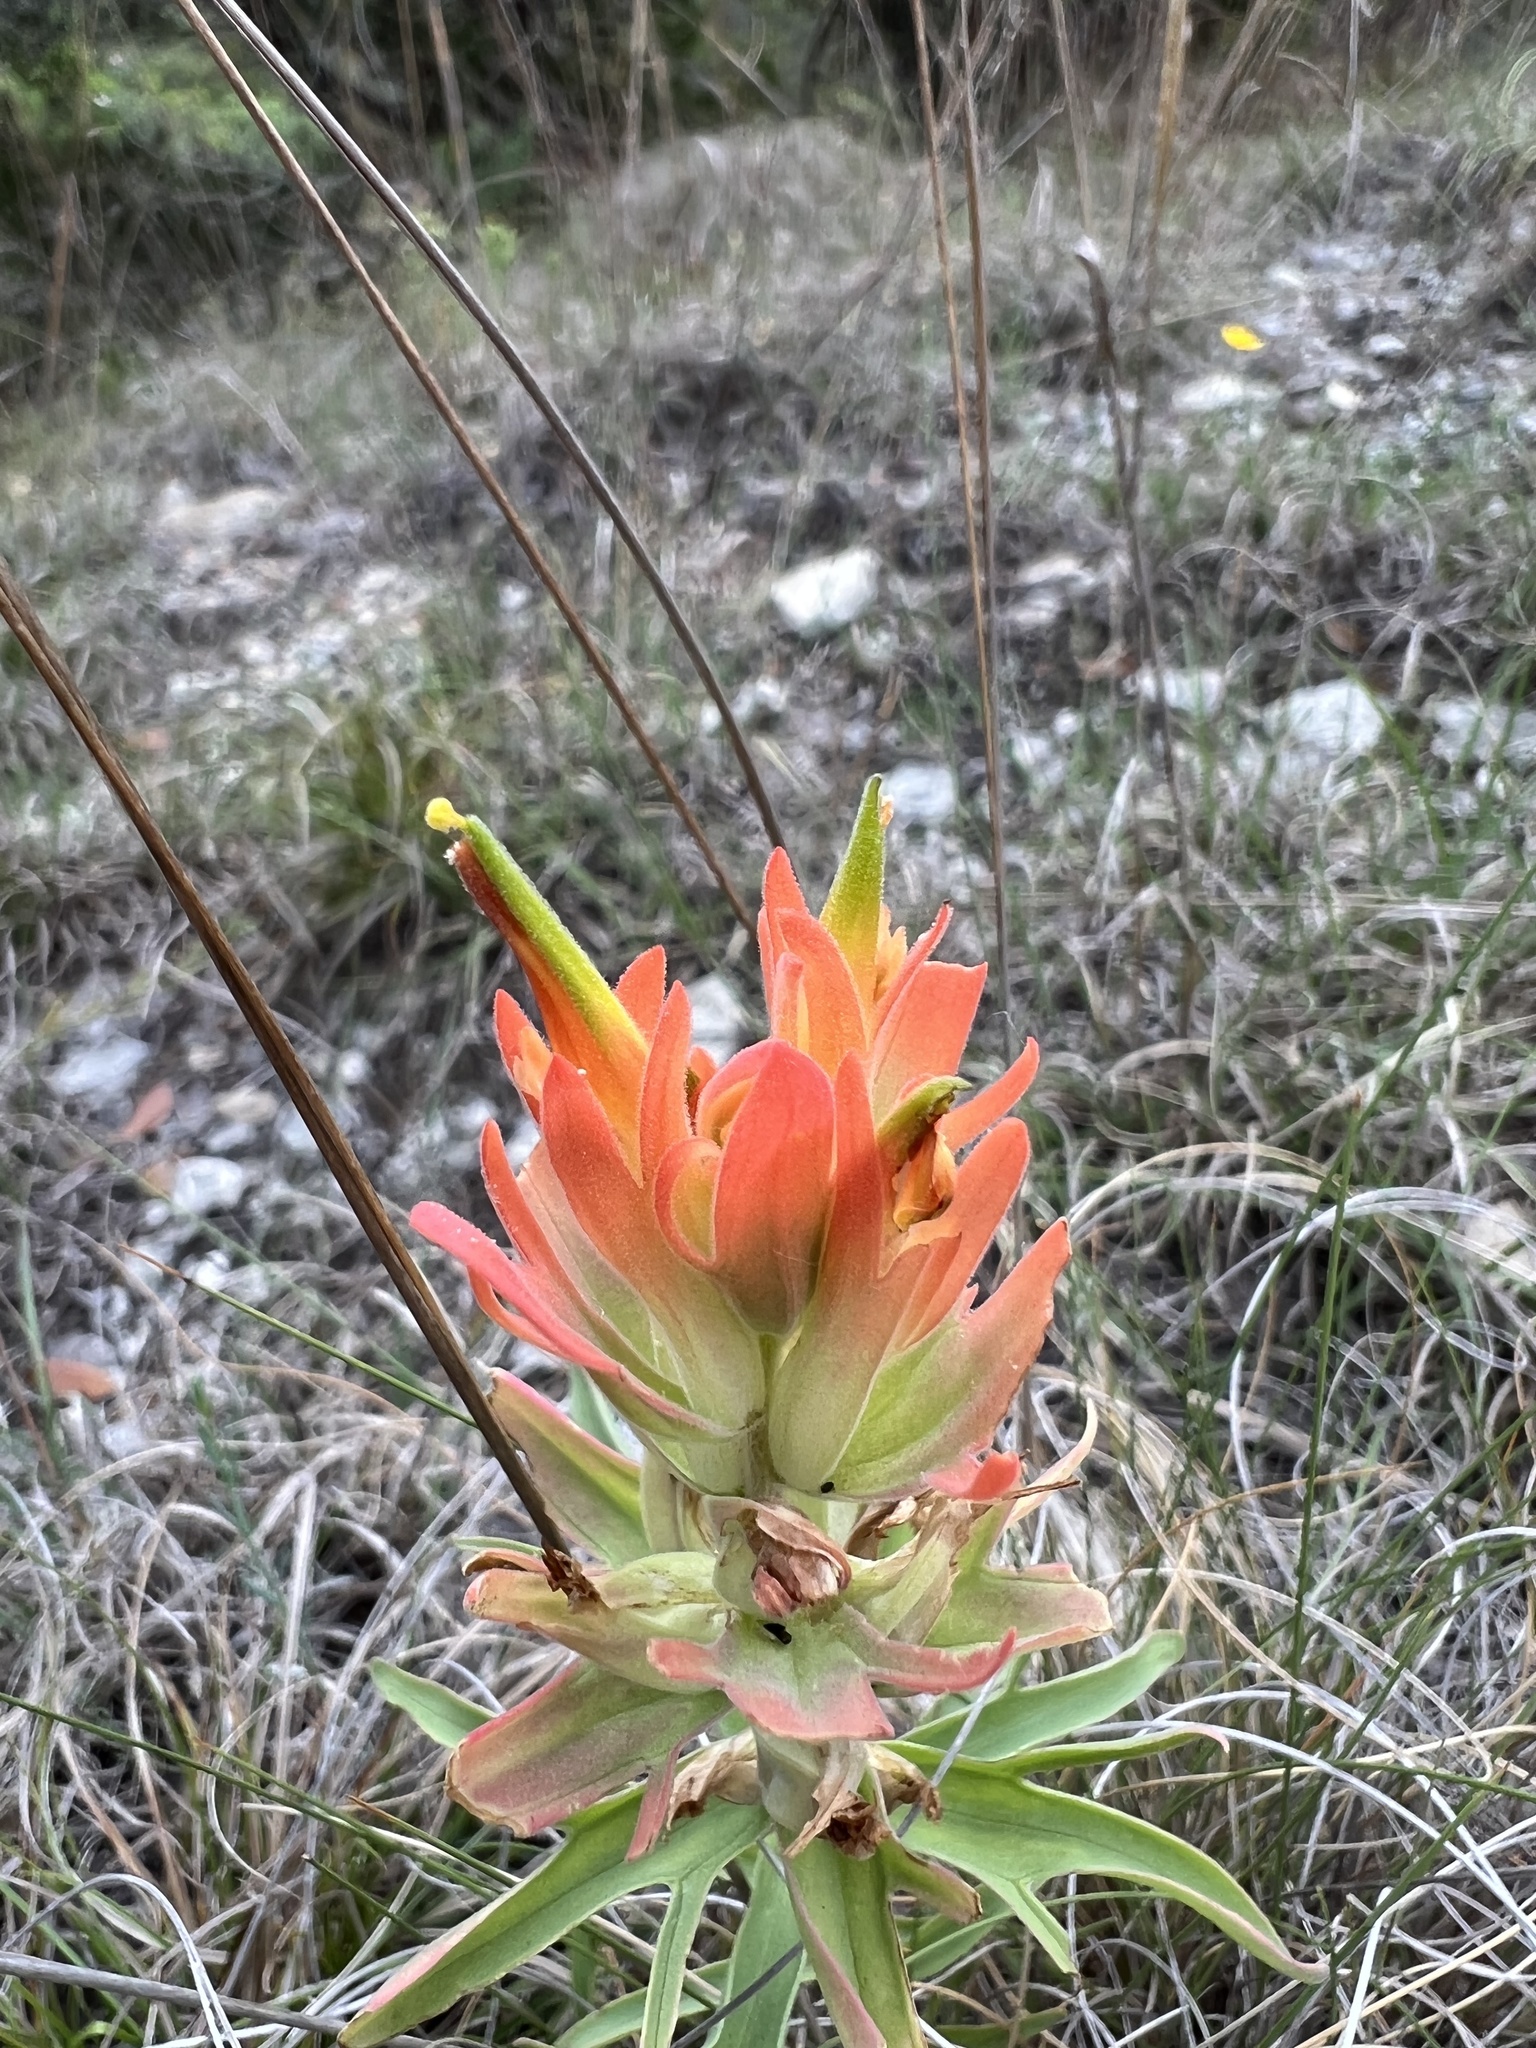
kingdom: Plantae
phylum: Tracheophyta
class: Magnoliopsida
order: Lamiales
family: Orobanchaceae
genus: Castilleja
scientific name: Castilleja lindheimeri
